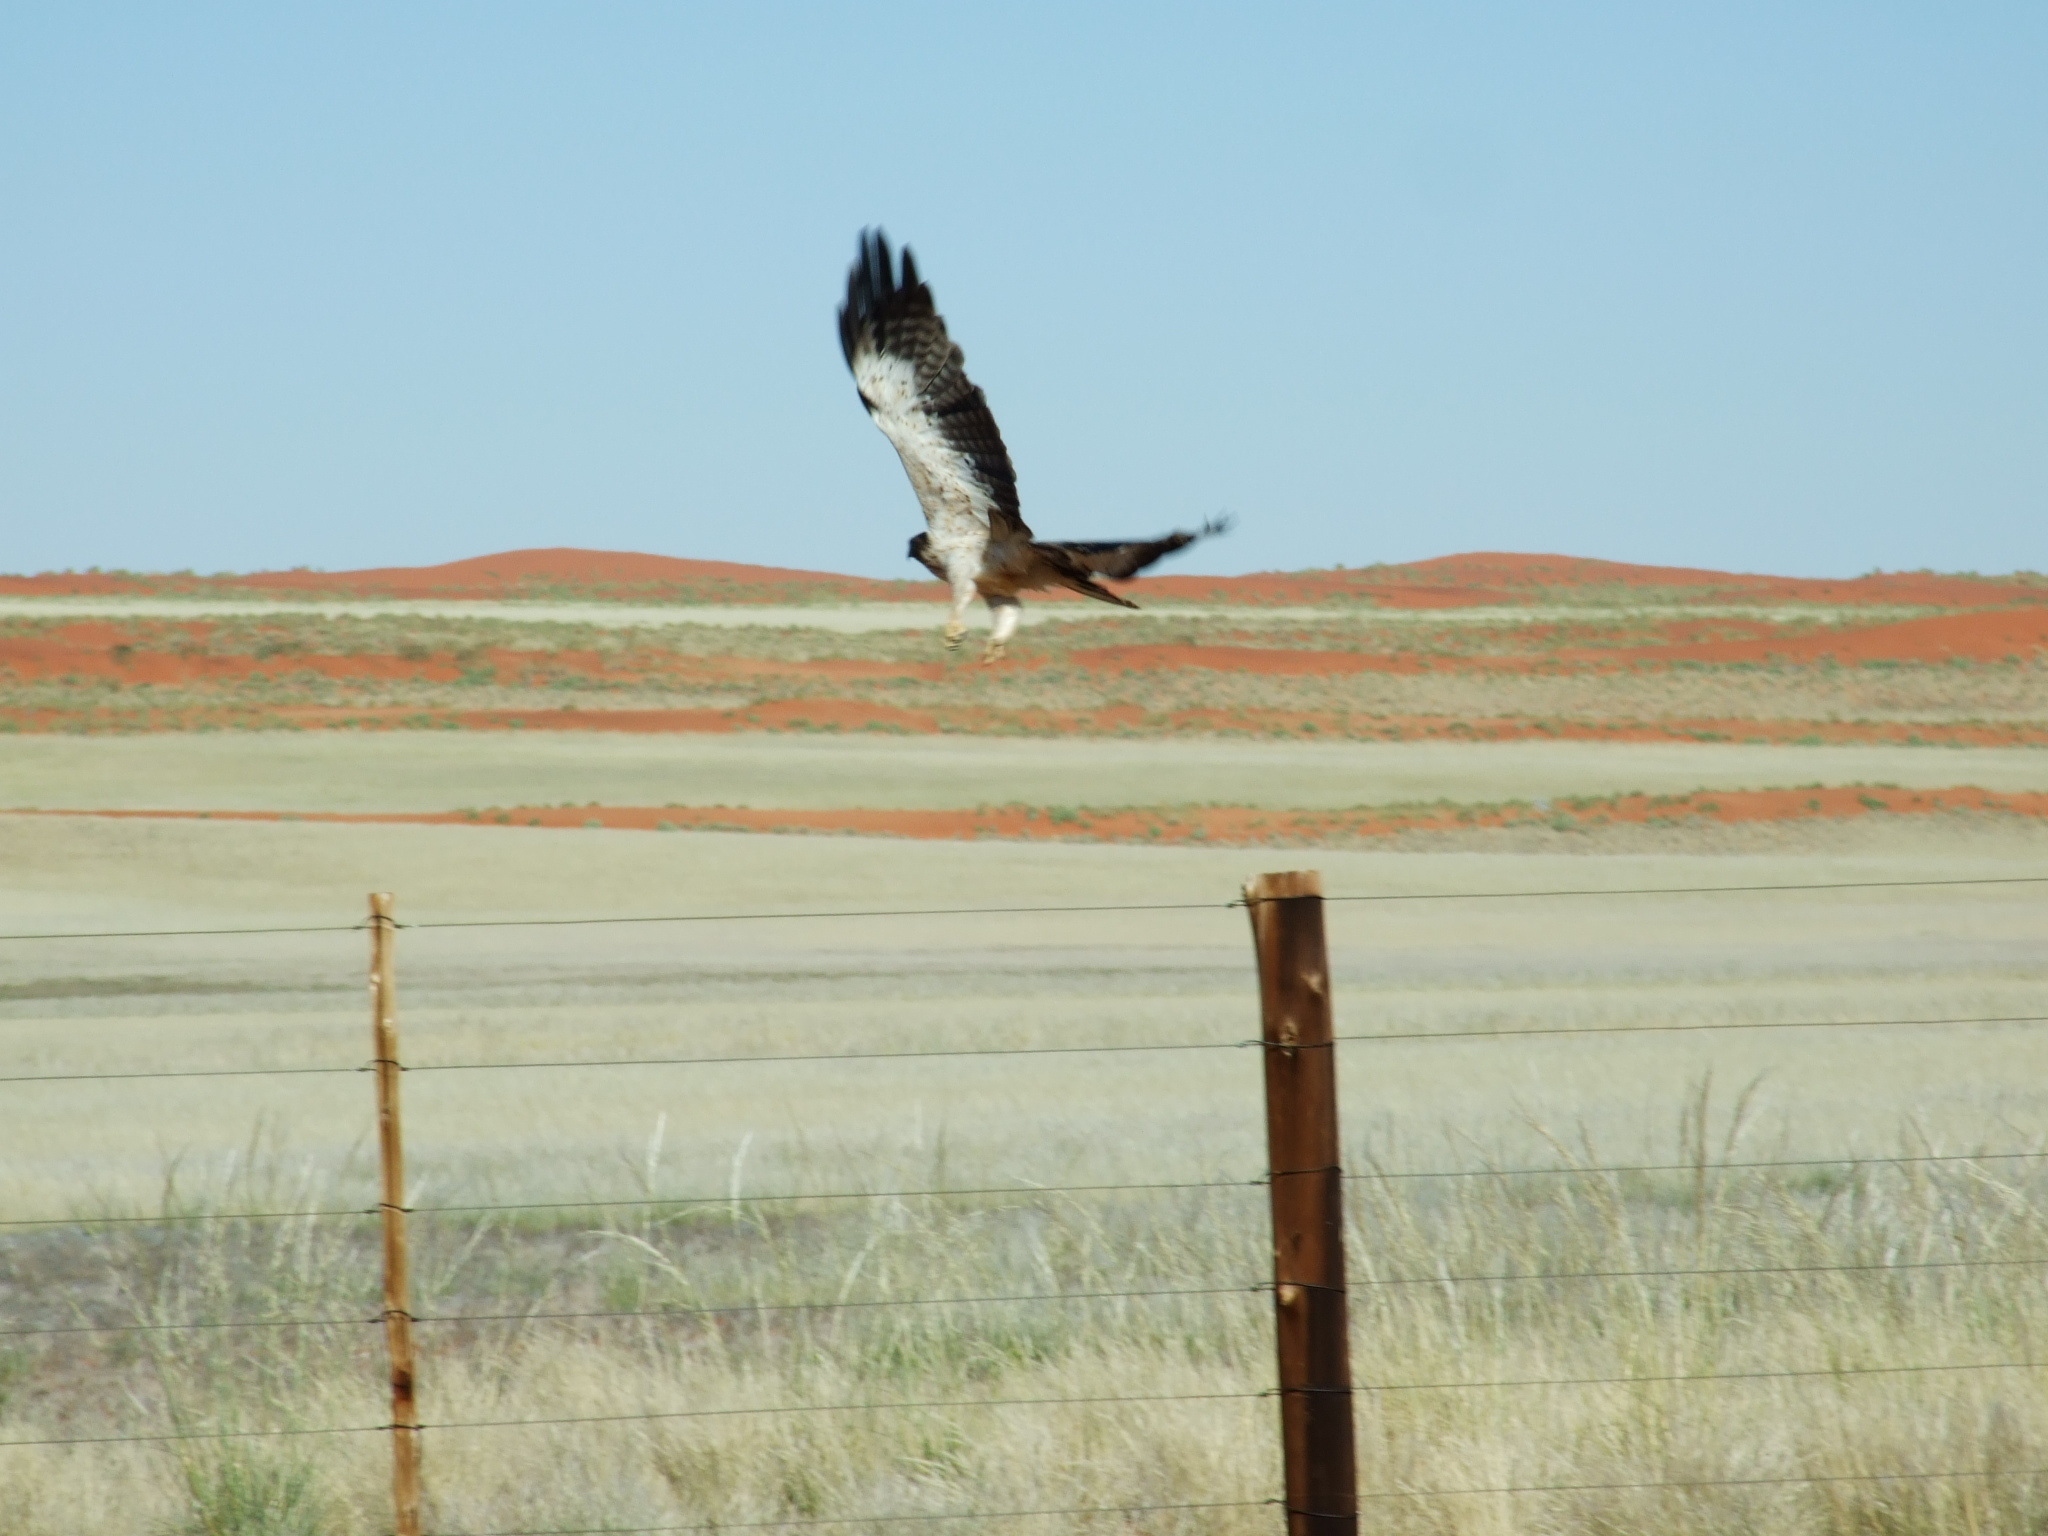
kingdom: Animalia
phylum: Chordata
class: Aves
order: Accipitriformes
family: Accipitridae
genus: Hieraaetus
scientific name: Hieraaetus pennatus
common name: Booted eagle
